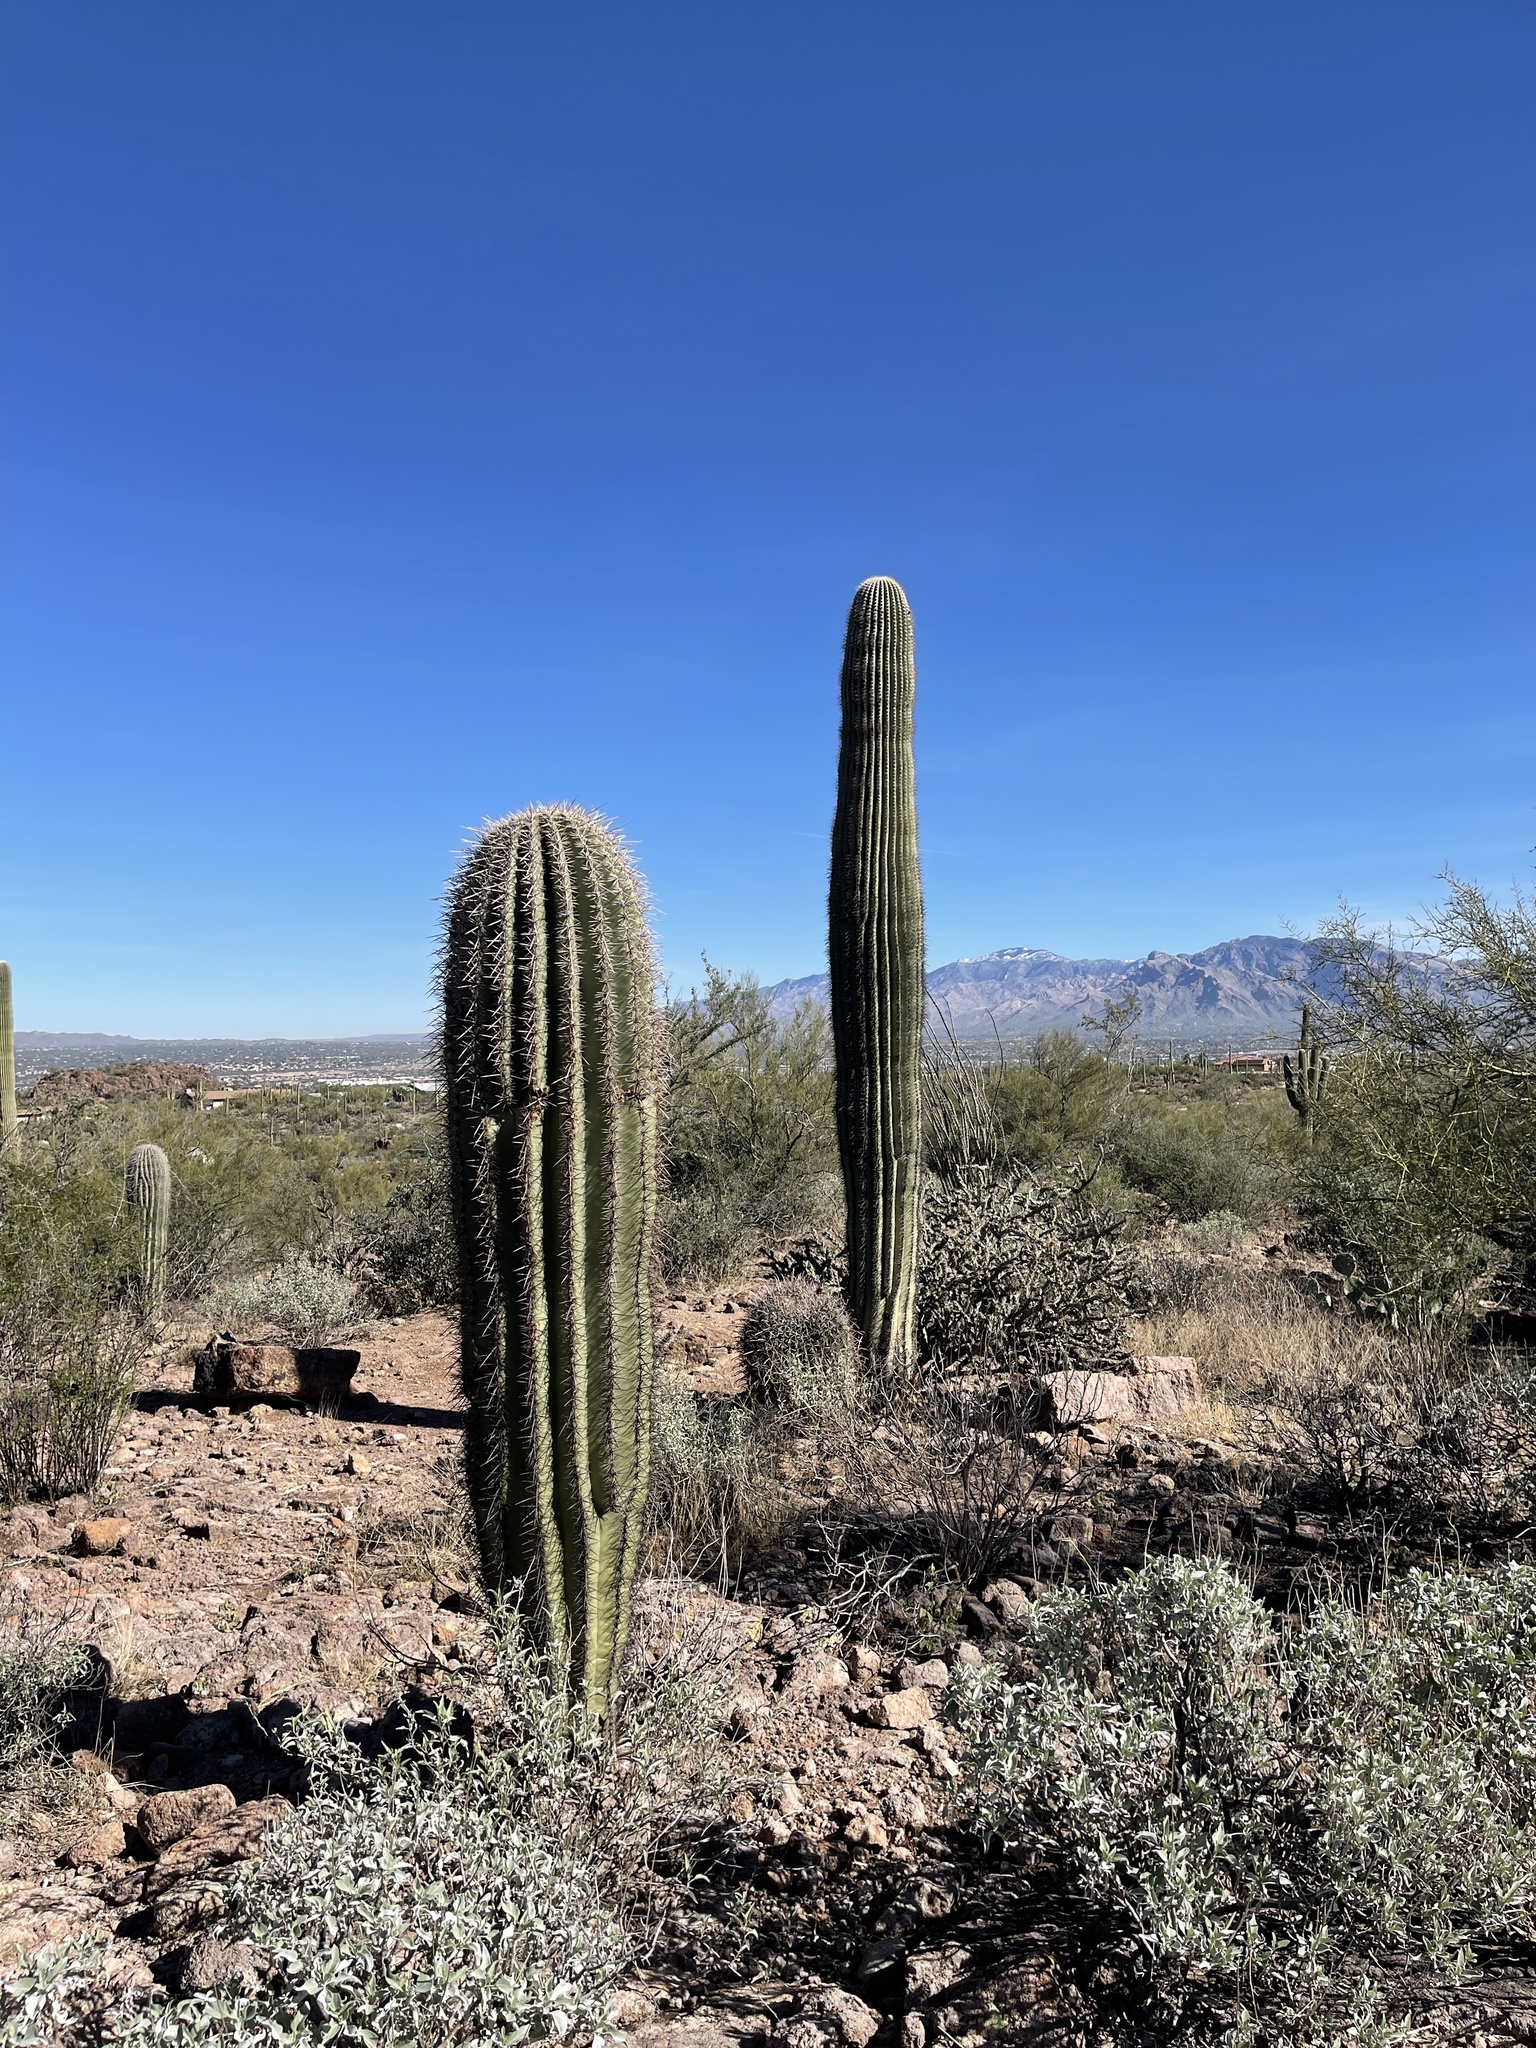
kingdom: Plantae
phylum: Tracheophyta
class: Magnoliopsida
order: Caryophyllales
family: Cactaceae
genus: Carnegiea
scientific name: Carnegiea gigantea
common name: Saguaro
